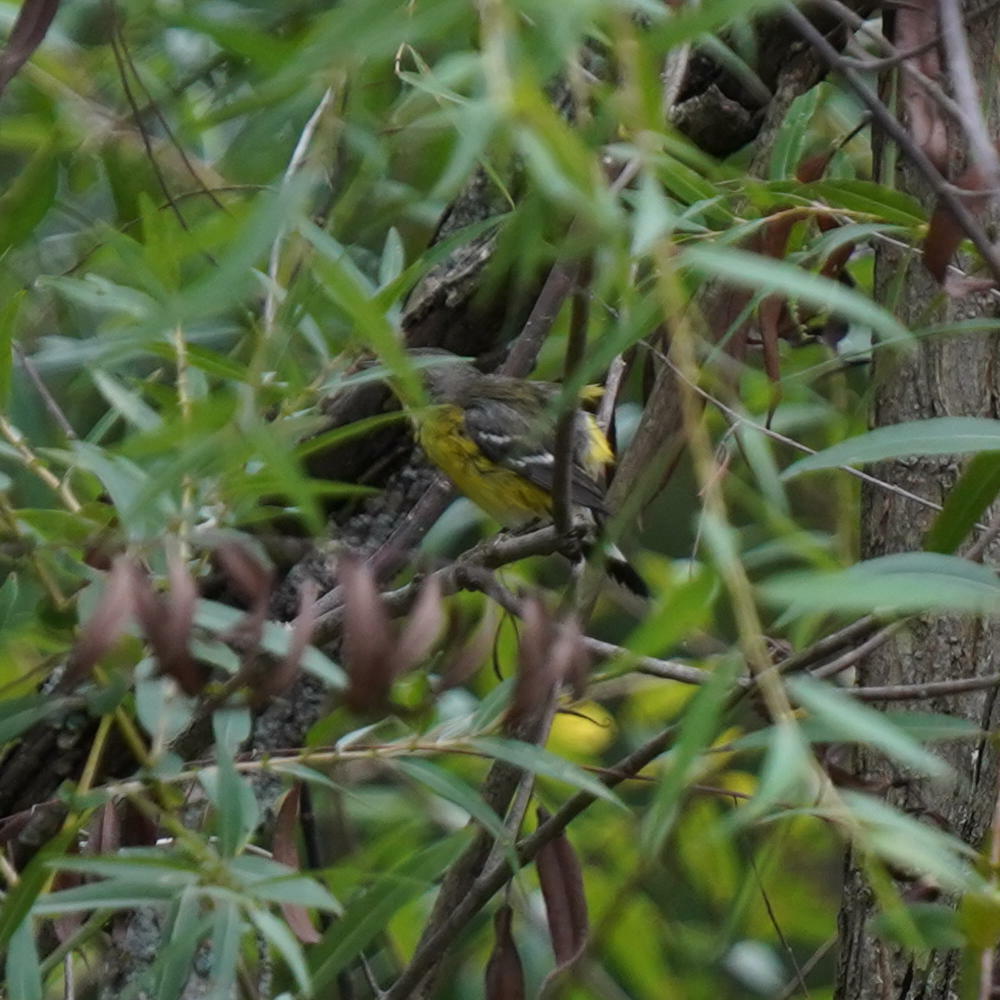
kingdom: Animalia
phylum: Chordata
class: Aves
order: Passeriformes
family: Parulidae
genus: Setophaga
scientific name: Setophaga magnolia
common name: Magnolia warbler
